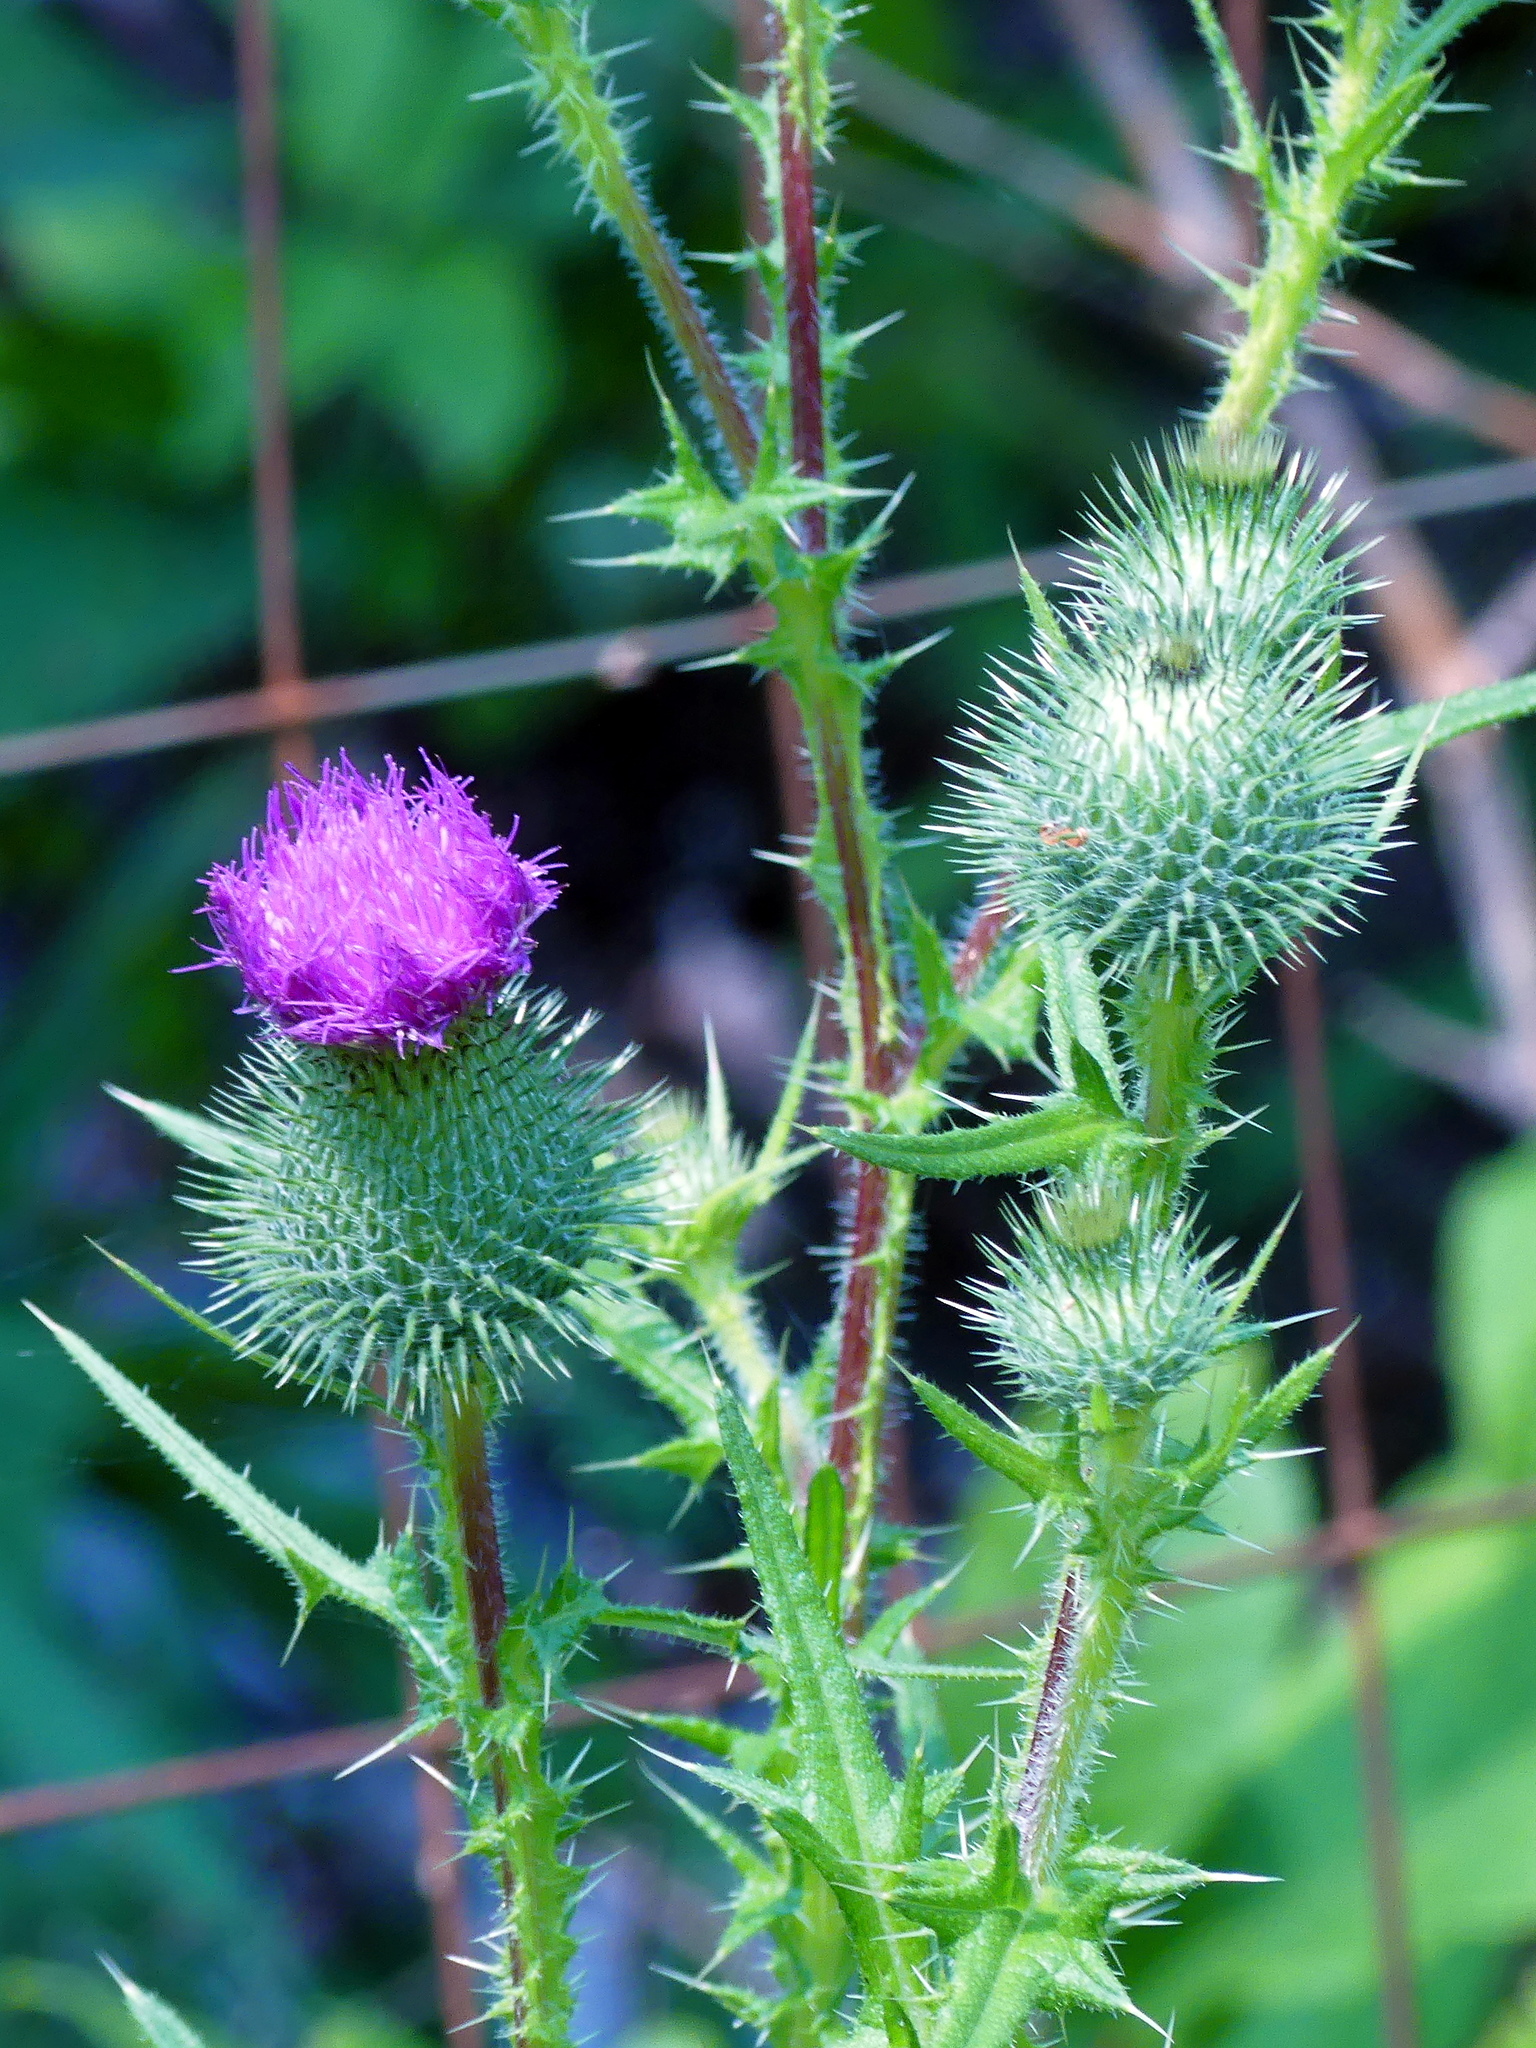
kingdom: Plantae
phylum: Tracheophyta
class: Magnoliopsida
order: Asterales
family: Asteraceae
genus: Cirsium
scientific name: Cirsium vulgare
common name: Bull thistle
